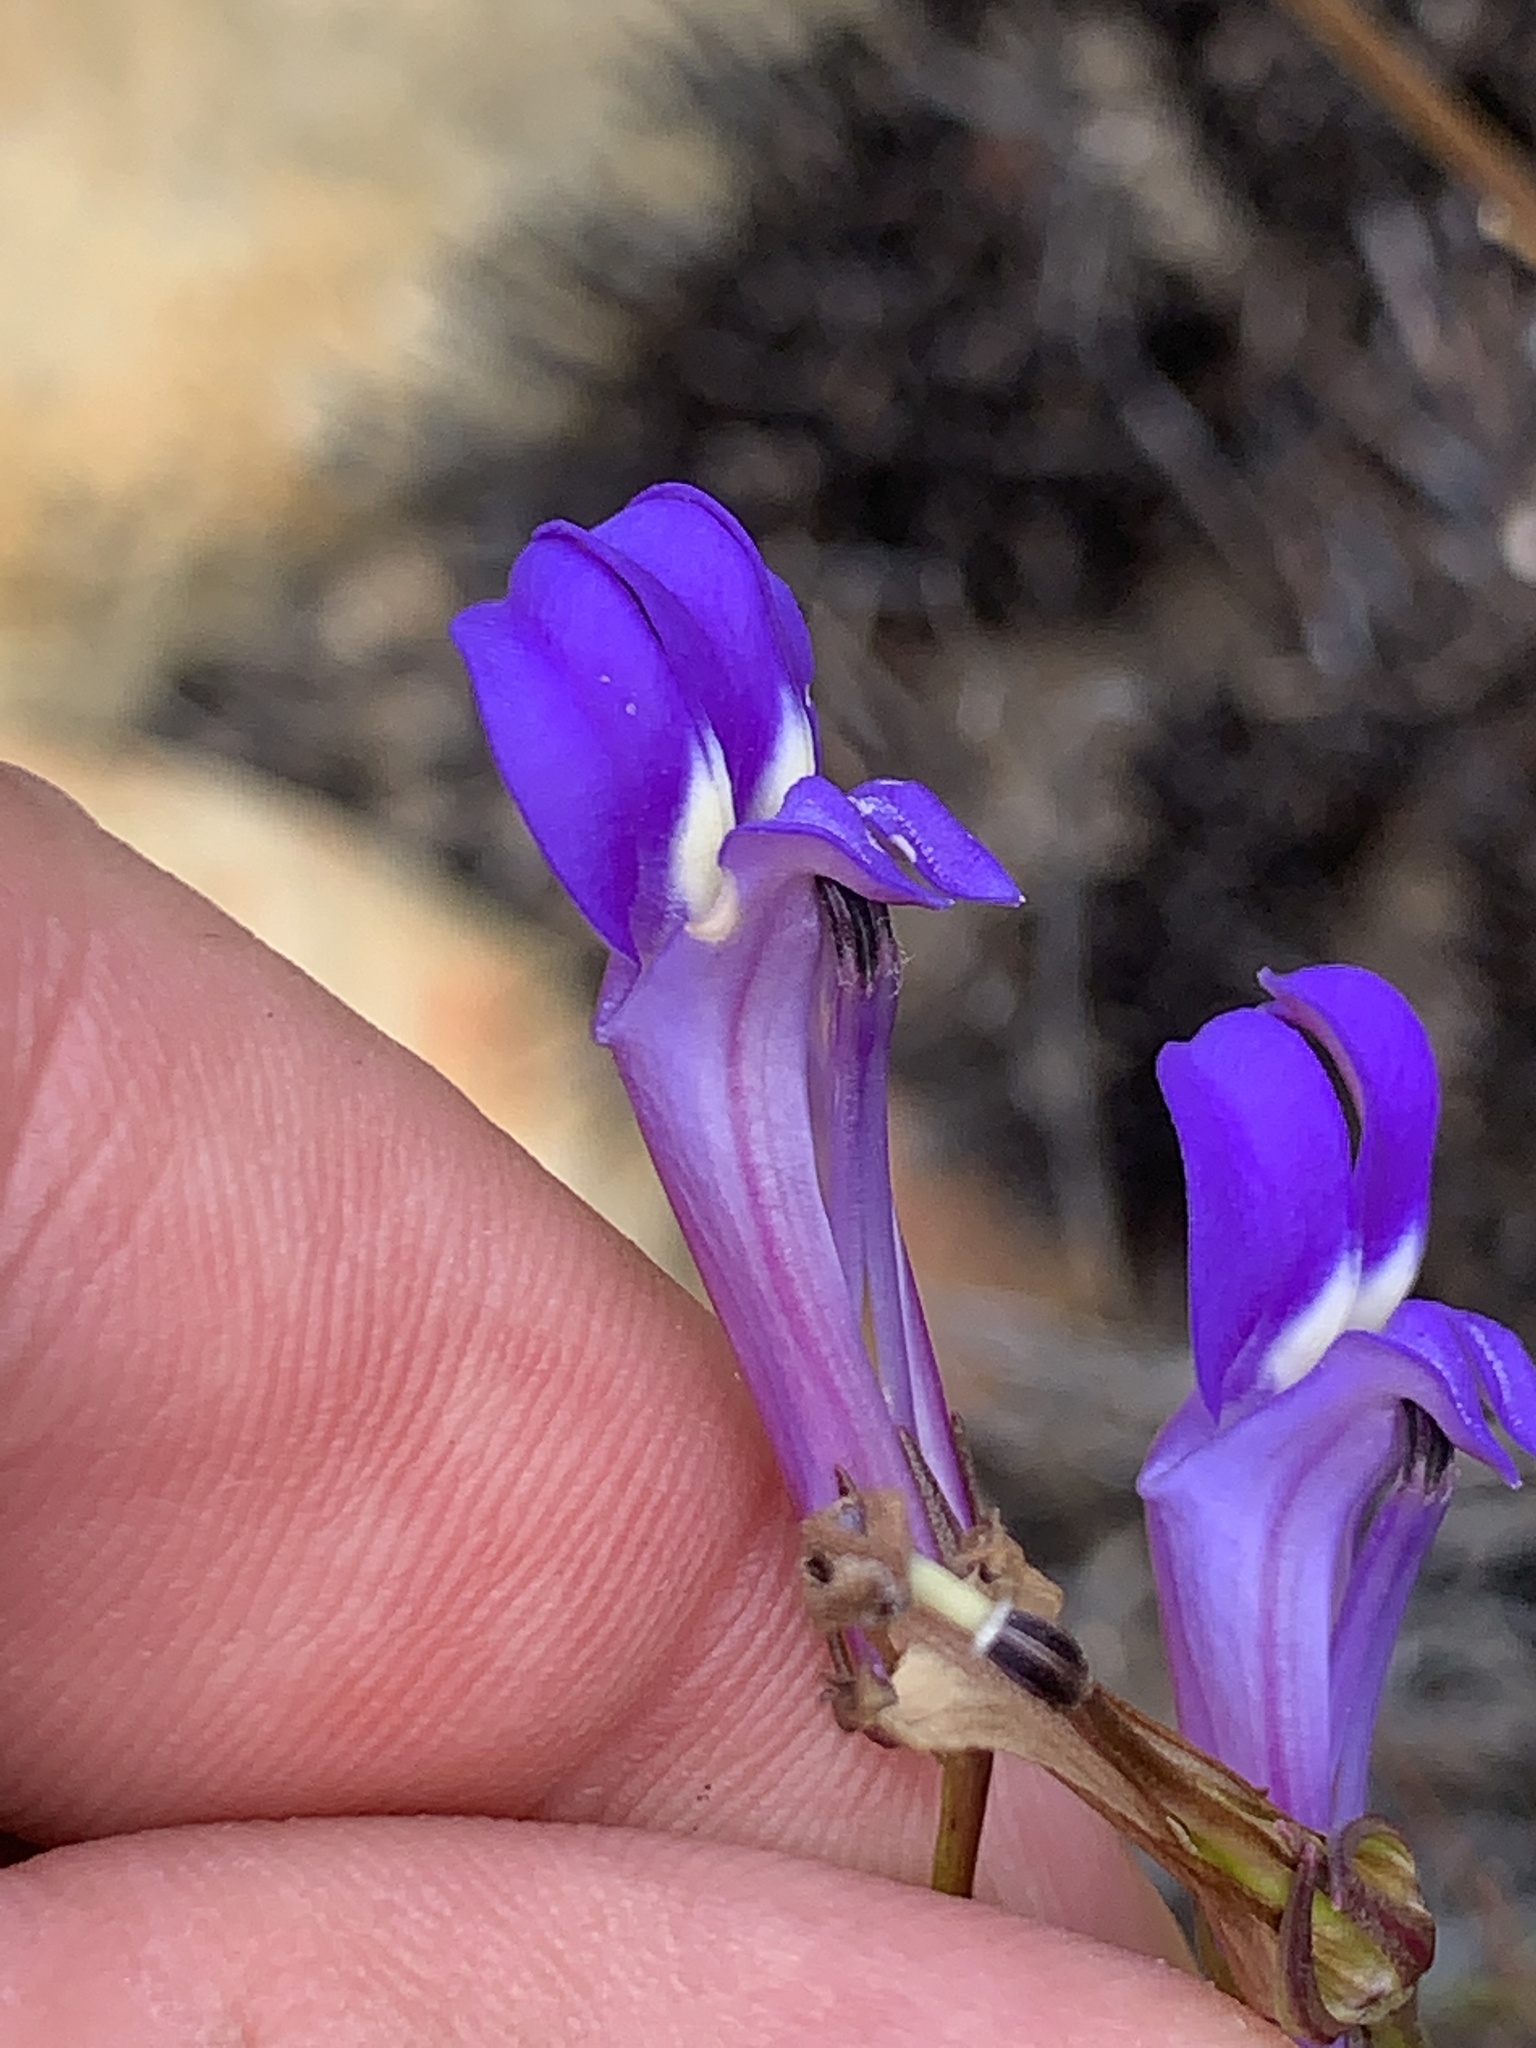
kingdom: Plantae
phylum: Tracheophyta
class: Magnoliopsida
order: Asterales
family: Campanulaceae
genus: Lobelia
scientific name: Lobelia coronopifolia
